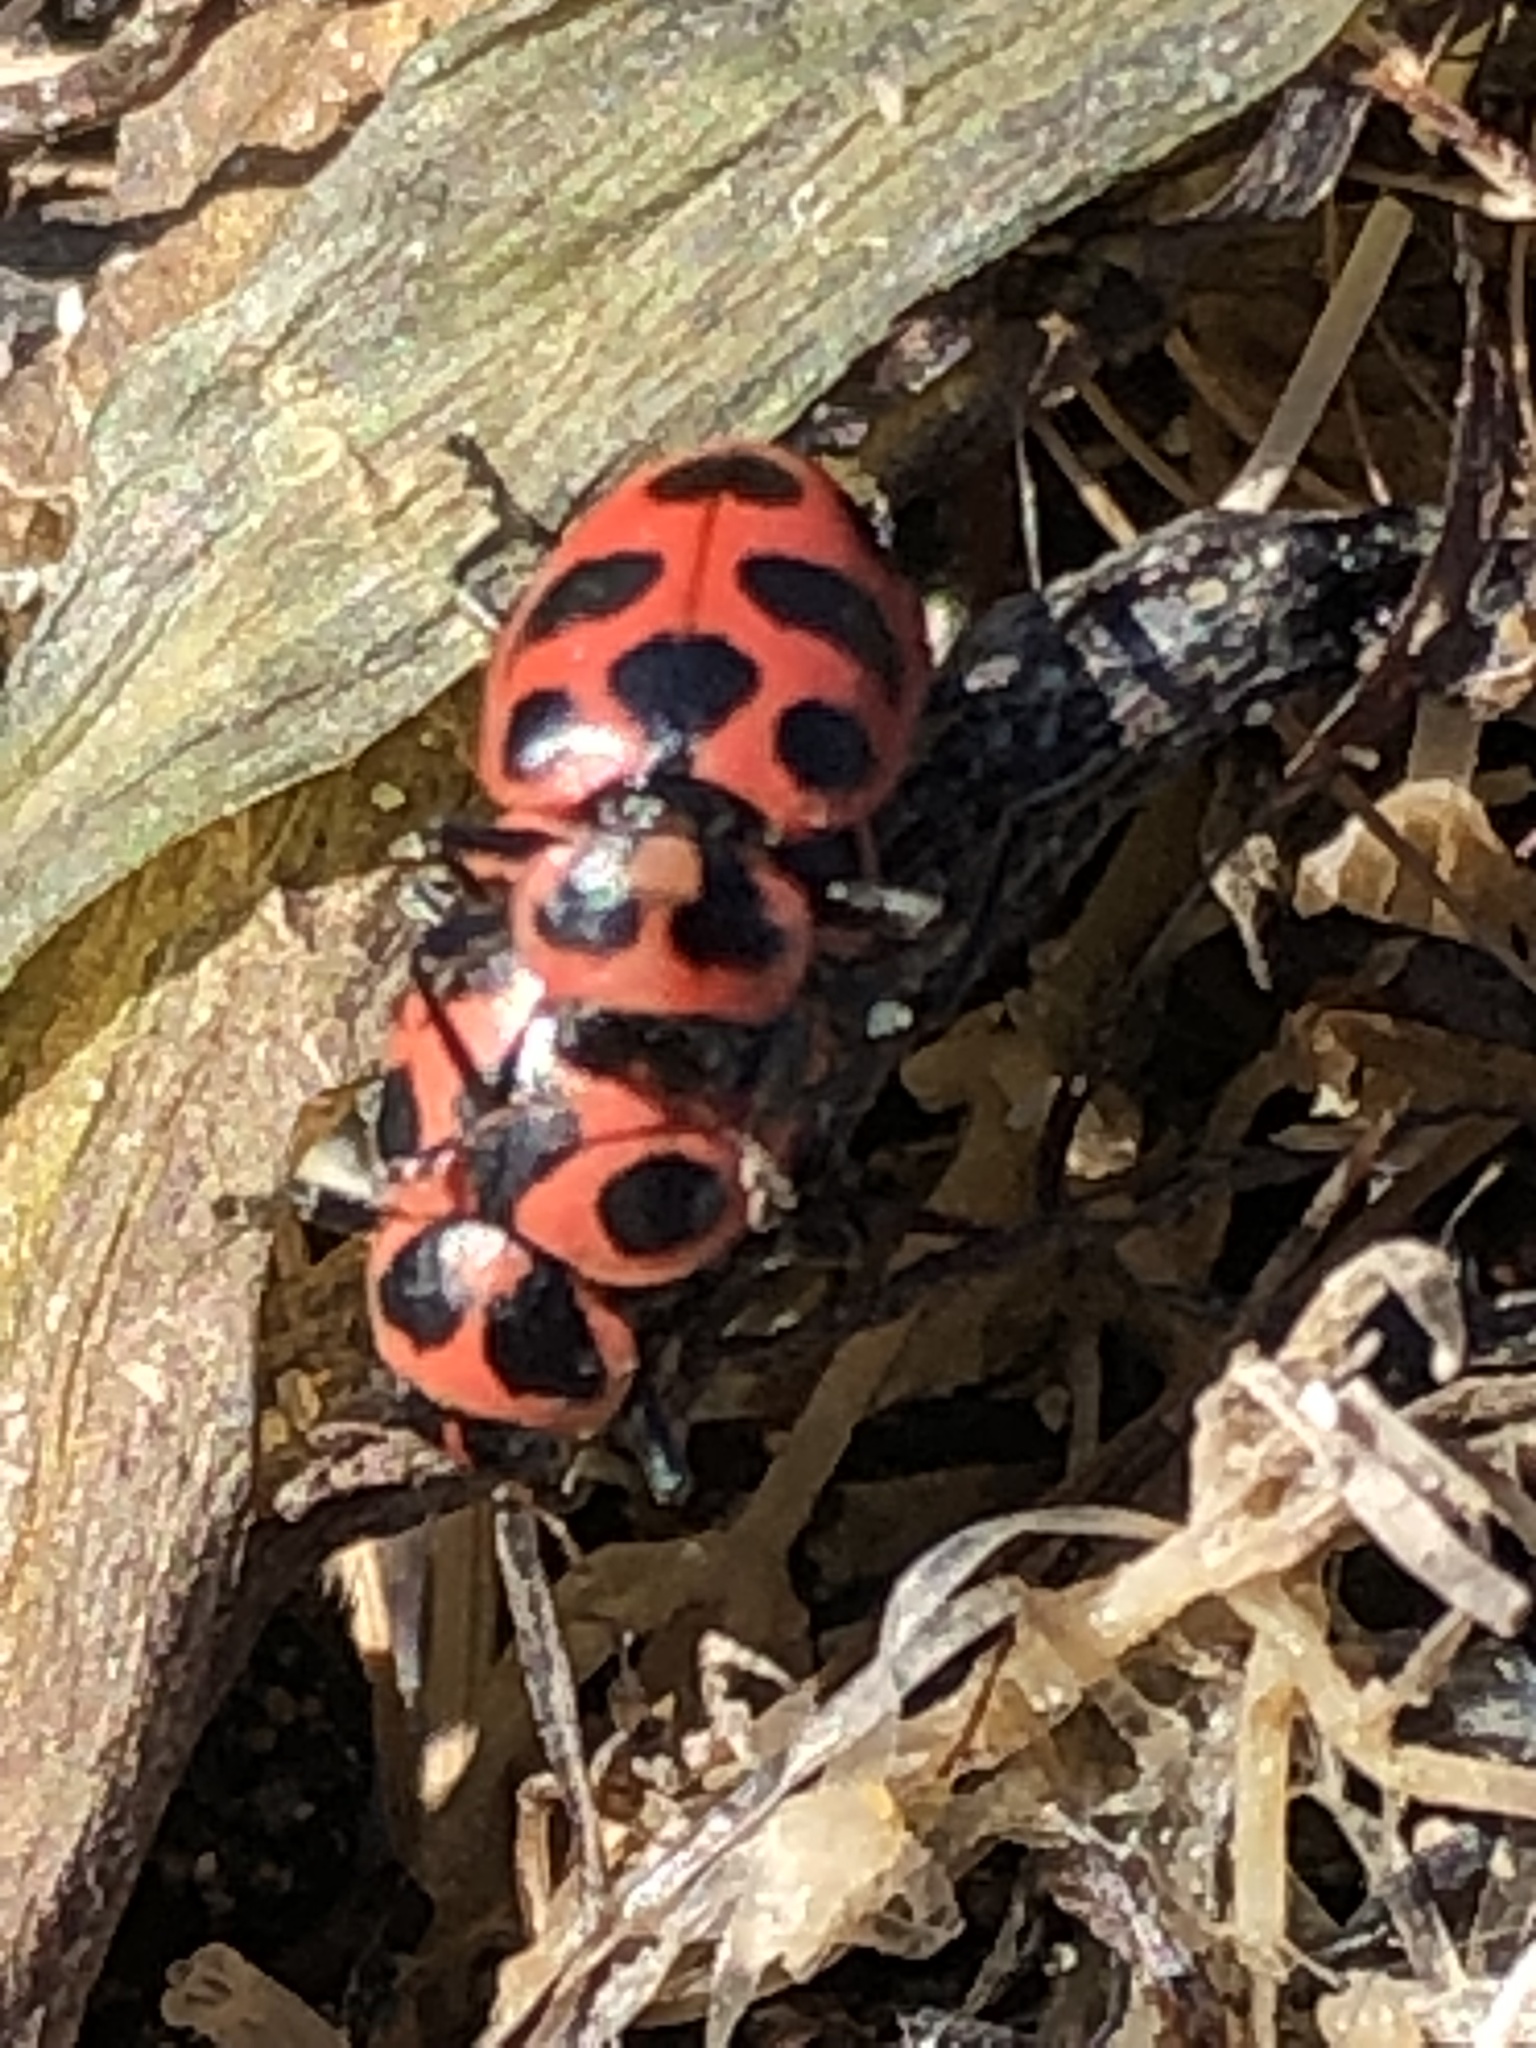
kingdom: Animalia
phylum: Arthropoda
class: Insecta
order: Coleoptera
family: Coccinellidae
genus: Coleomegilla
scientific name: Coleomegilla maculata
